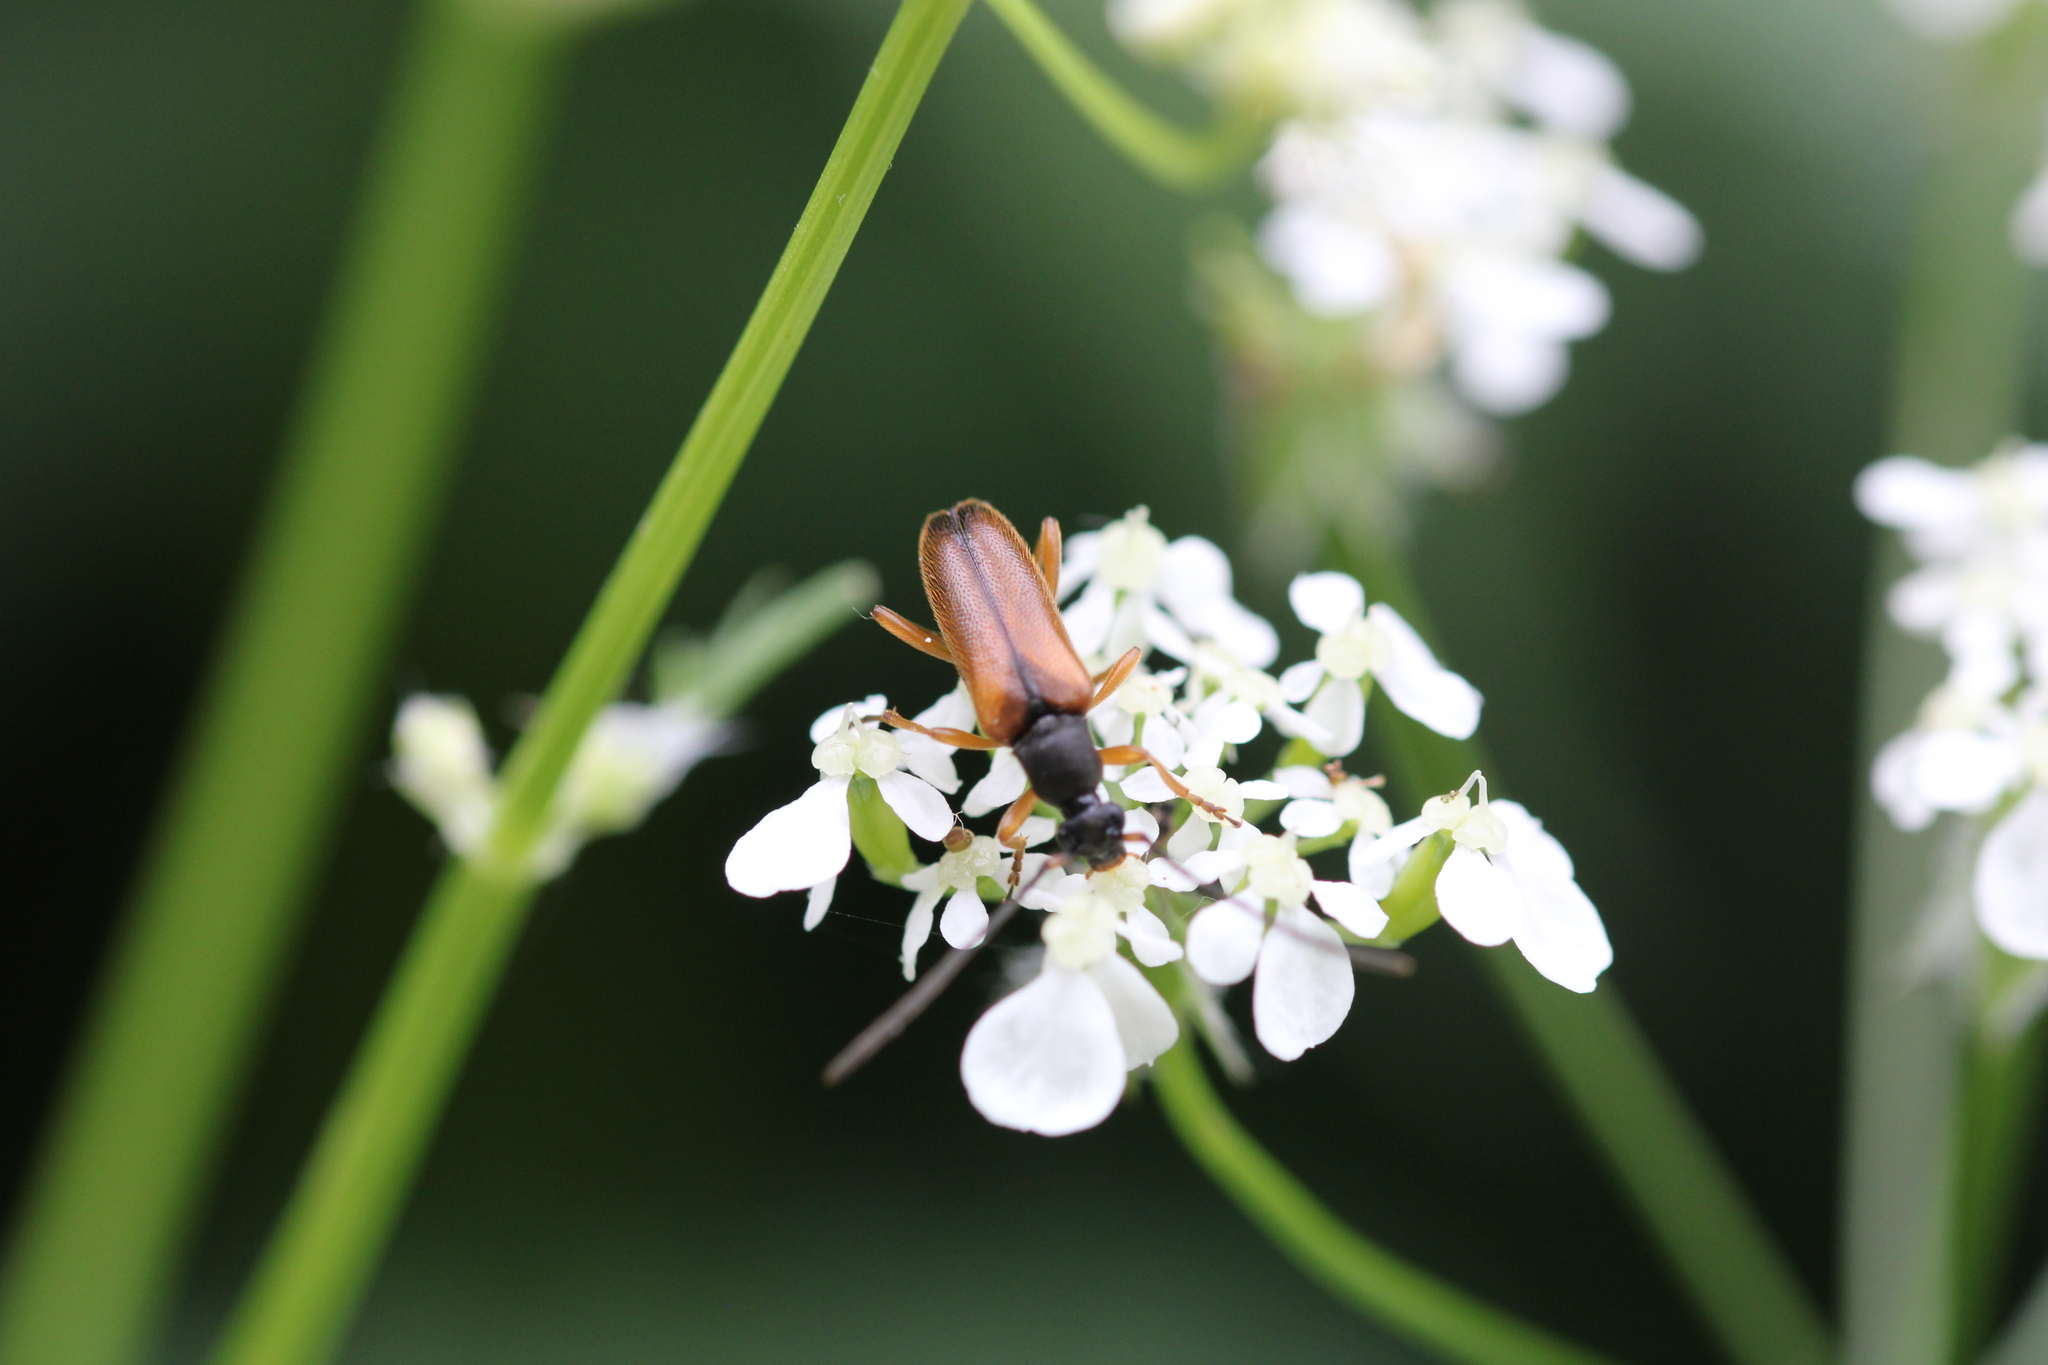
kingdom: Animalia
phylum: Arthropoda
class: Insecta
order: Coleoptera
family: Cerambycidae
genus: Alosterna
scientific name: Alosterna tabacicolor
